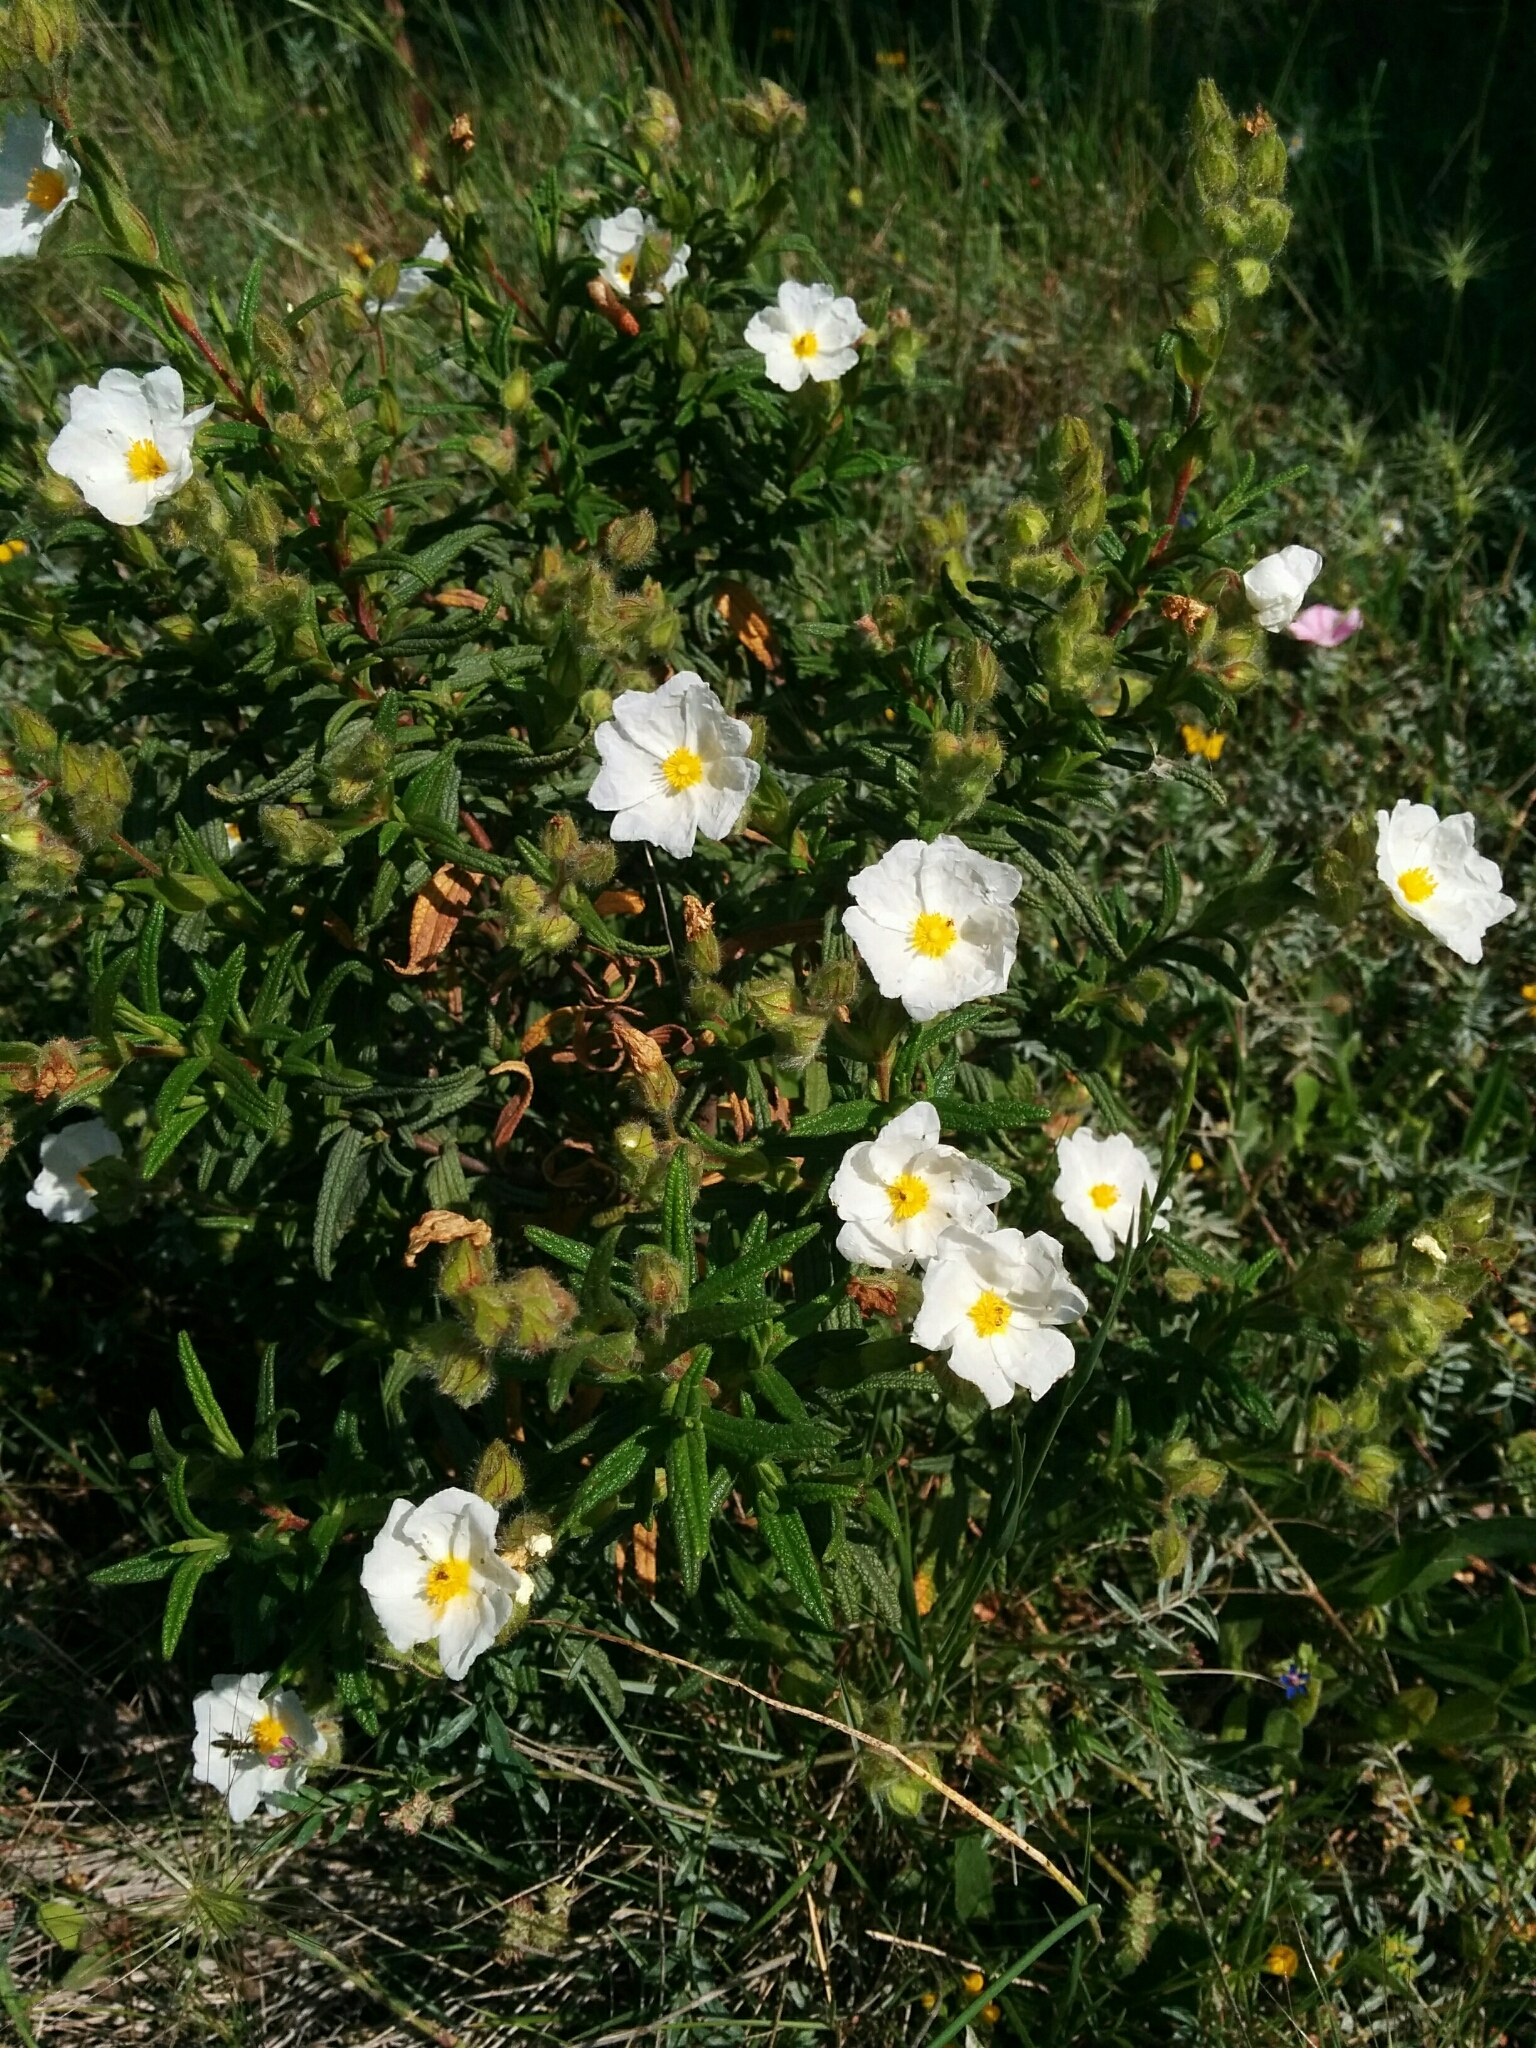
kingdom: Plantae
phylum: Tracheophyta
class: Magnoliopsida
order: Malvales
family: Cistaceae
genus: Cistus
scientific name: Cistus monspeliensis
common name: Montpelier cistus
